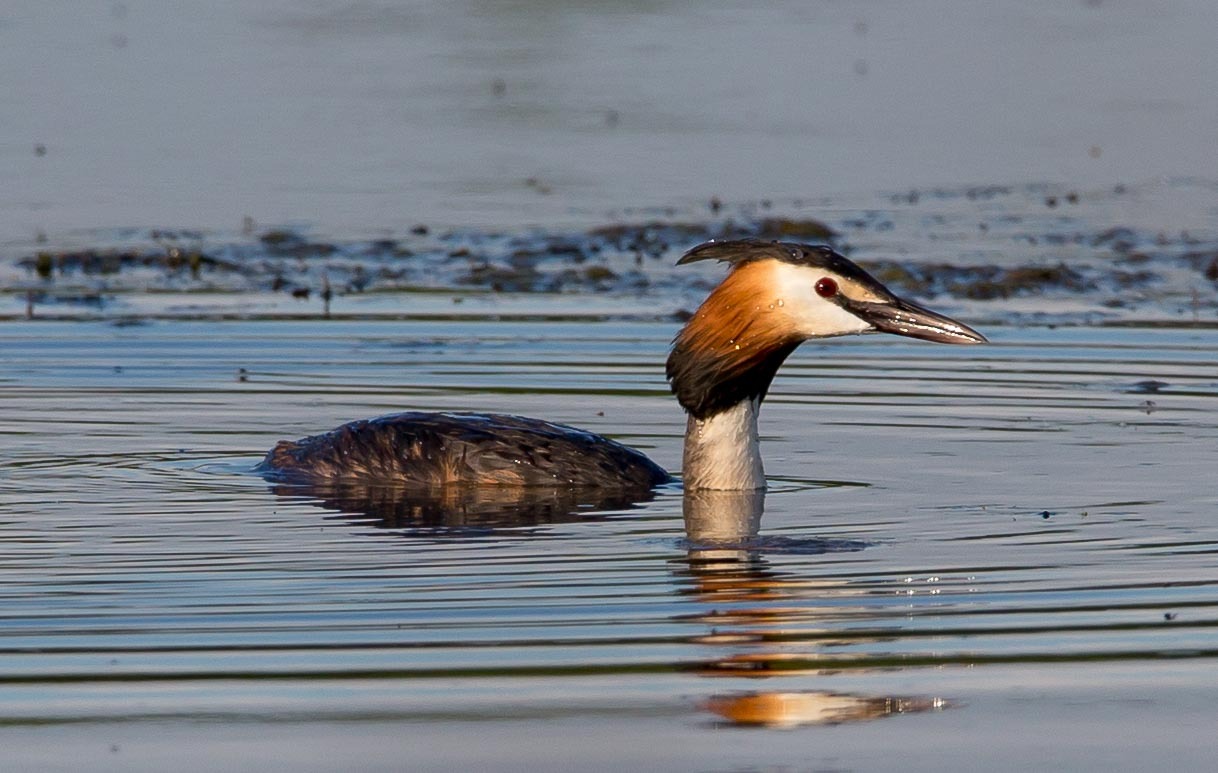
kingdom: Animalia
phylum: Chordata
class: Aves
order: Podicipediformes
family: Podicipedidae
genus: Podiceps
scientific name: Podiceps cristatus
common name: Great crested grebe
